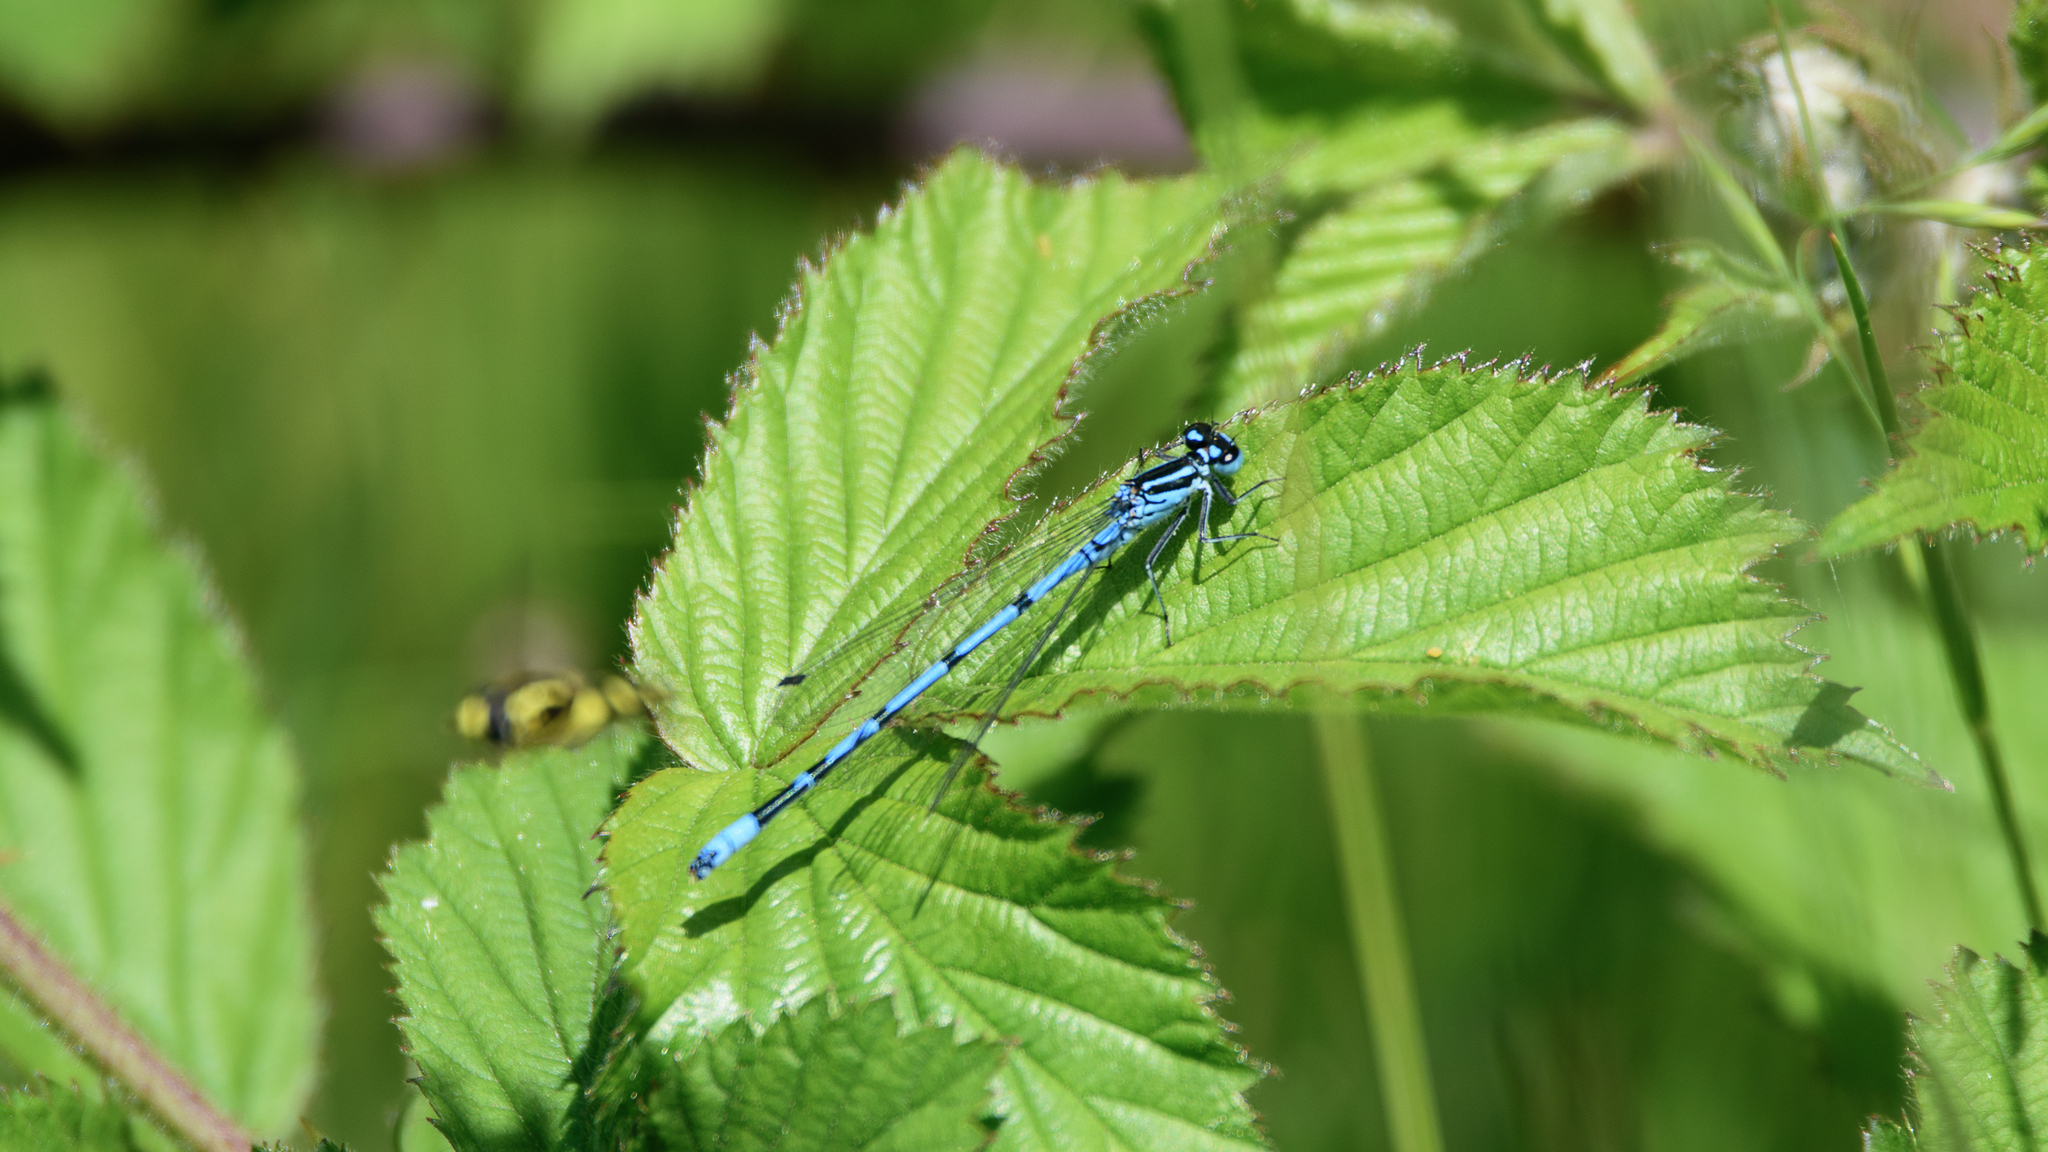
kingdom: Animalia
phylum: Arthropoda
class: Insecta
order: Odonata
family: Coenagrionidae
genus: Coenagrion
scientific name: Coenagrion puella
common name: Azure damselfly
